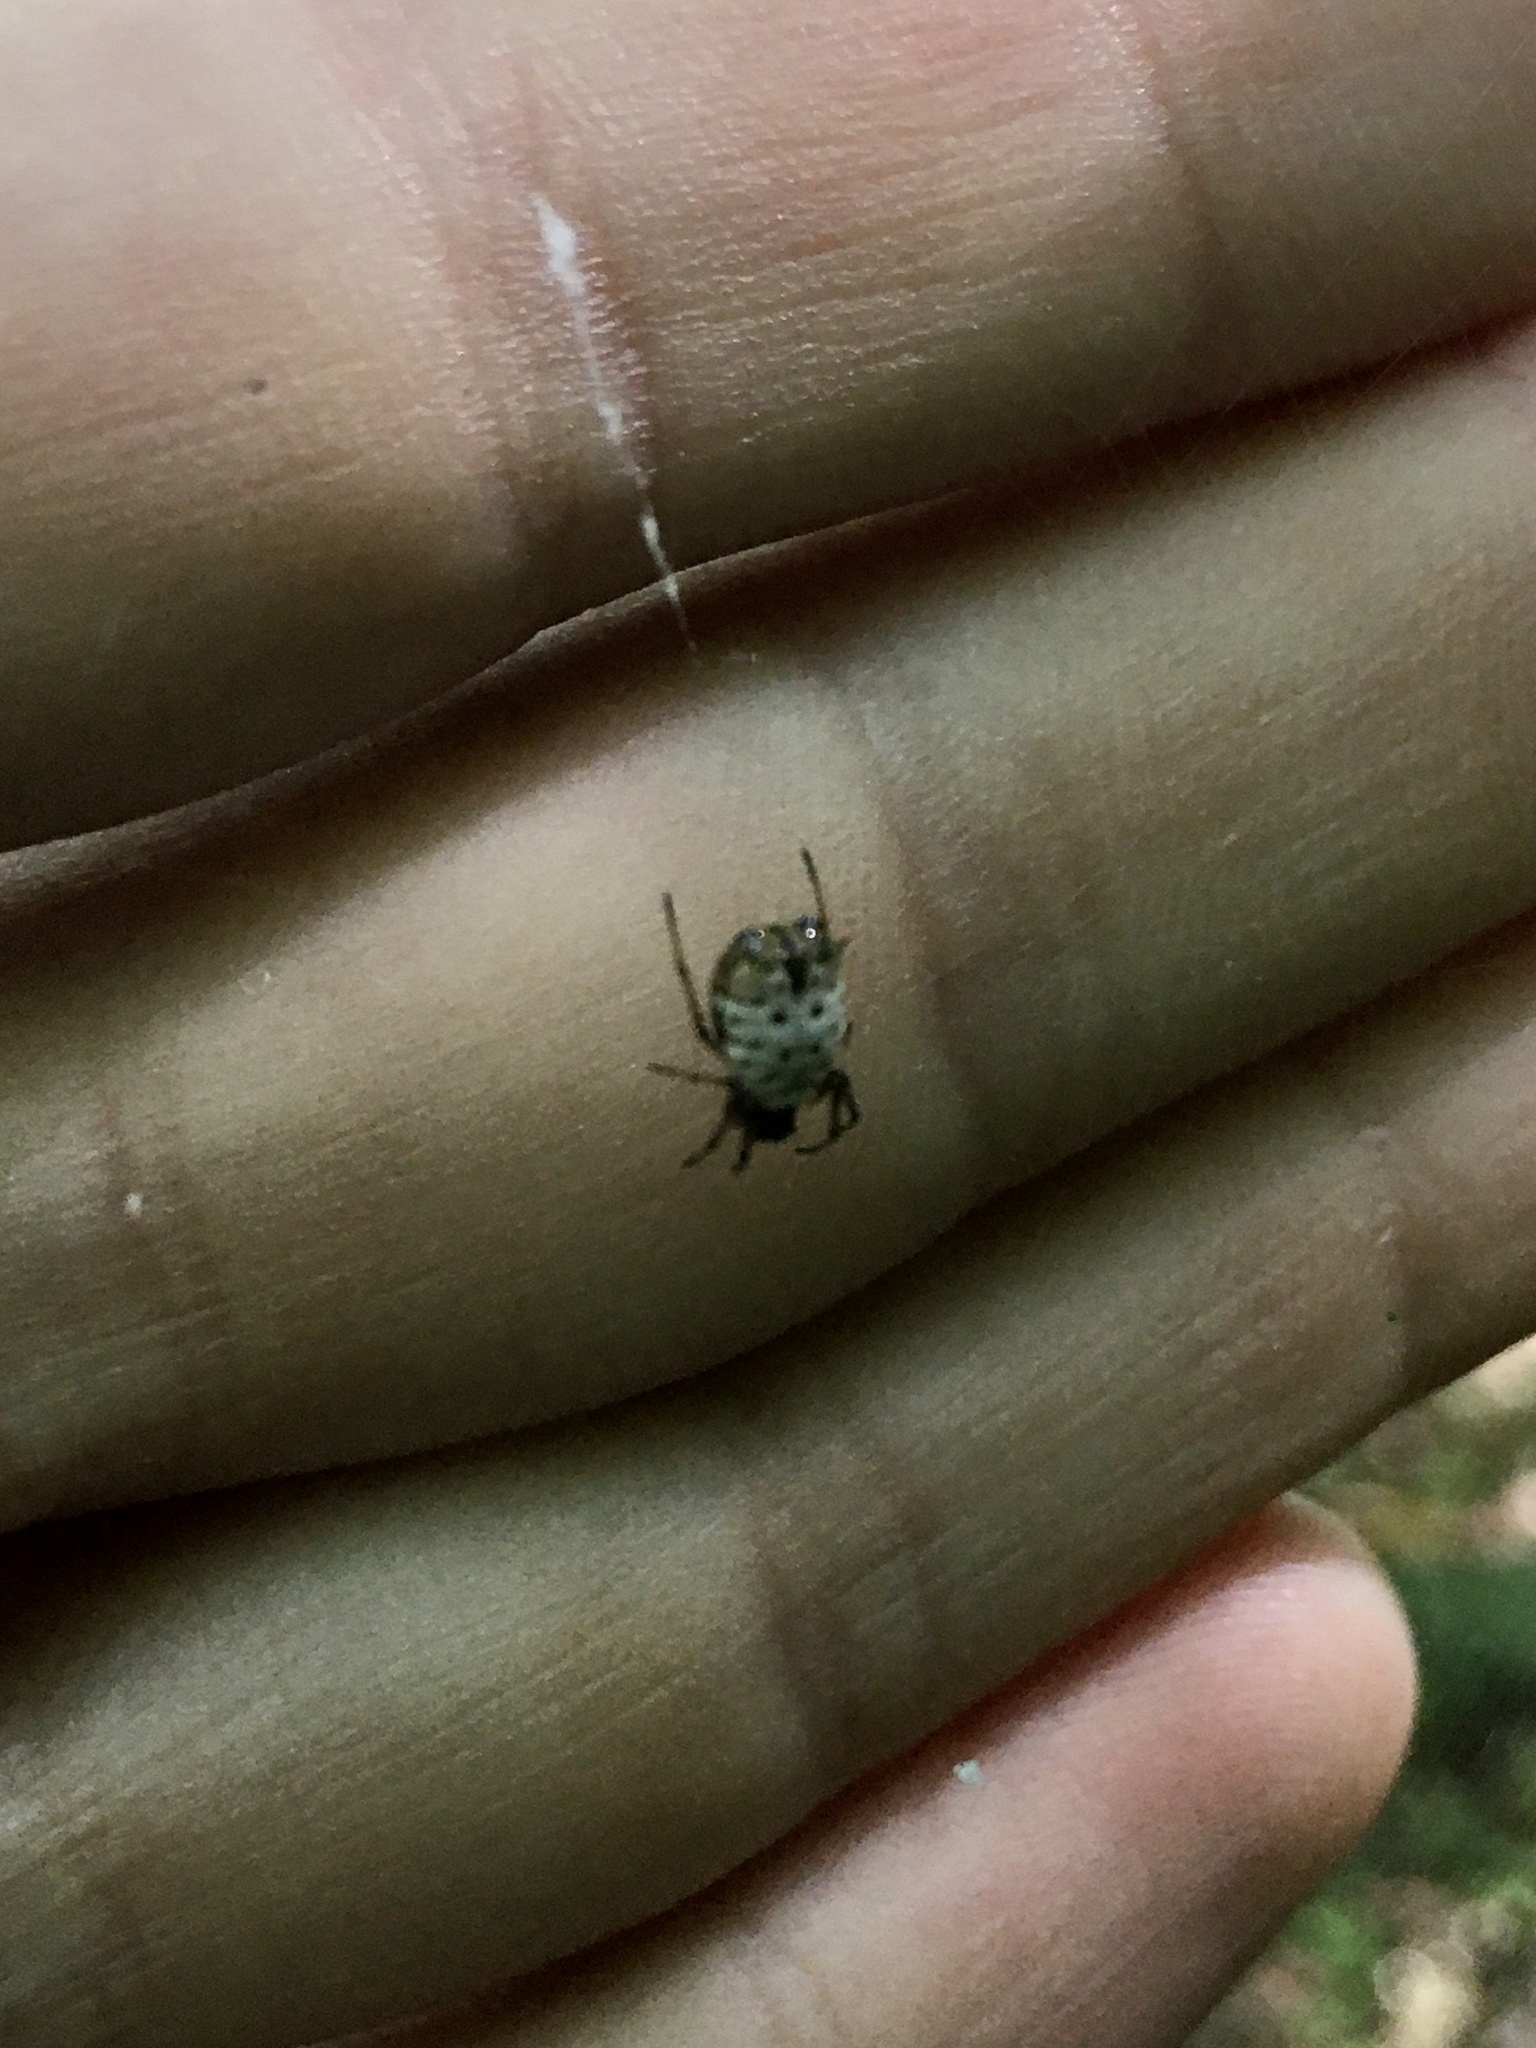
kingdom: Animalia
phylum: Arthropoda
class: Arachnida
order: Araneae
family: Araneidae
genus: Micrathena
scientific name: Micrathena mitrata
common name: Orb weavers
